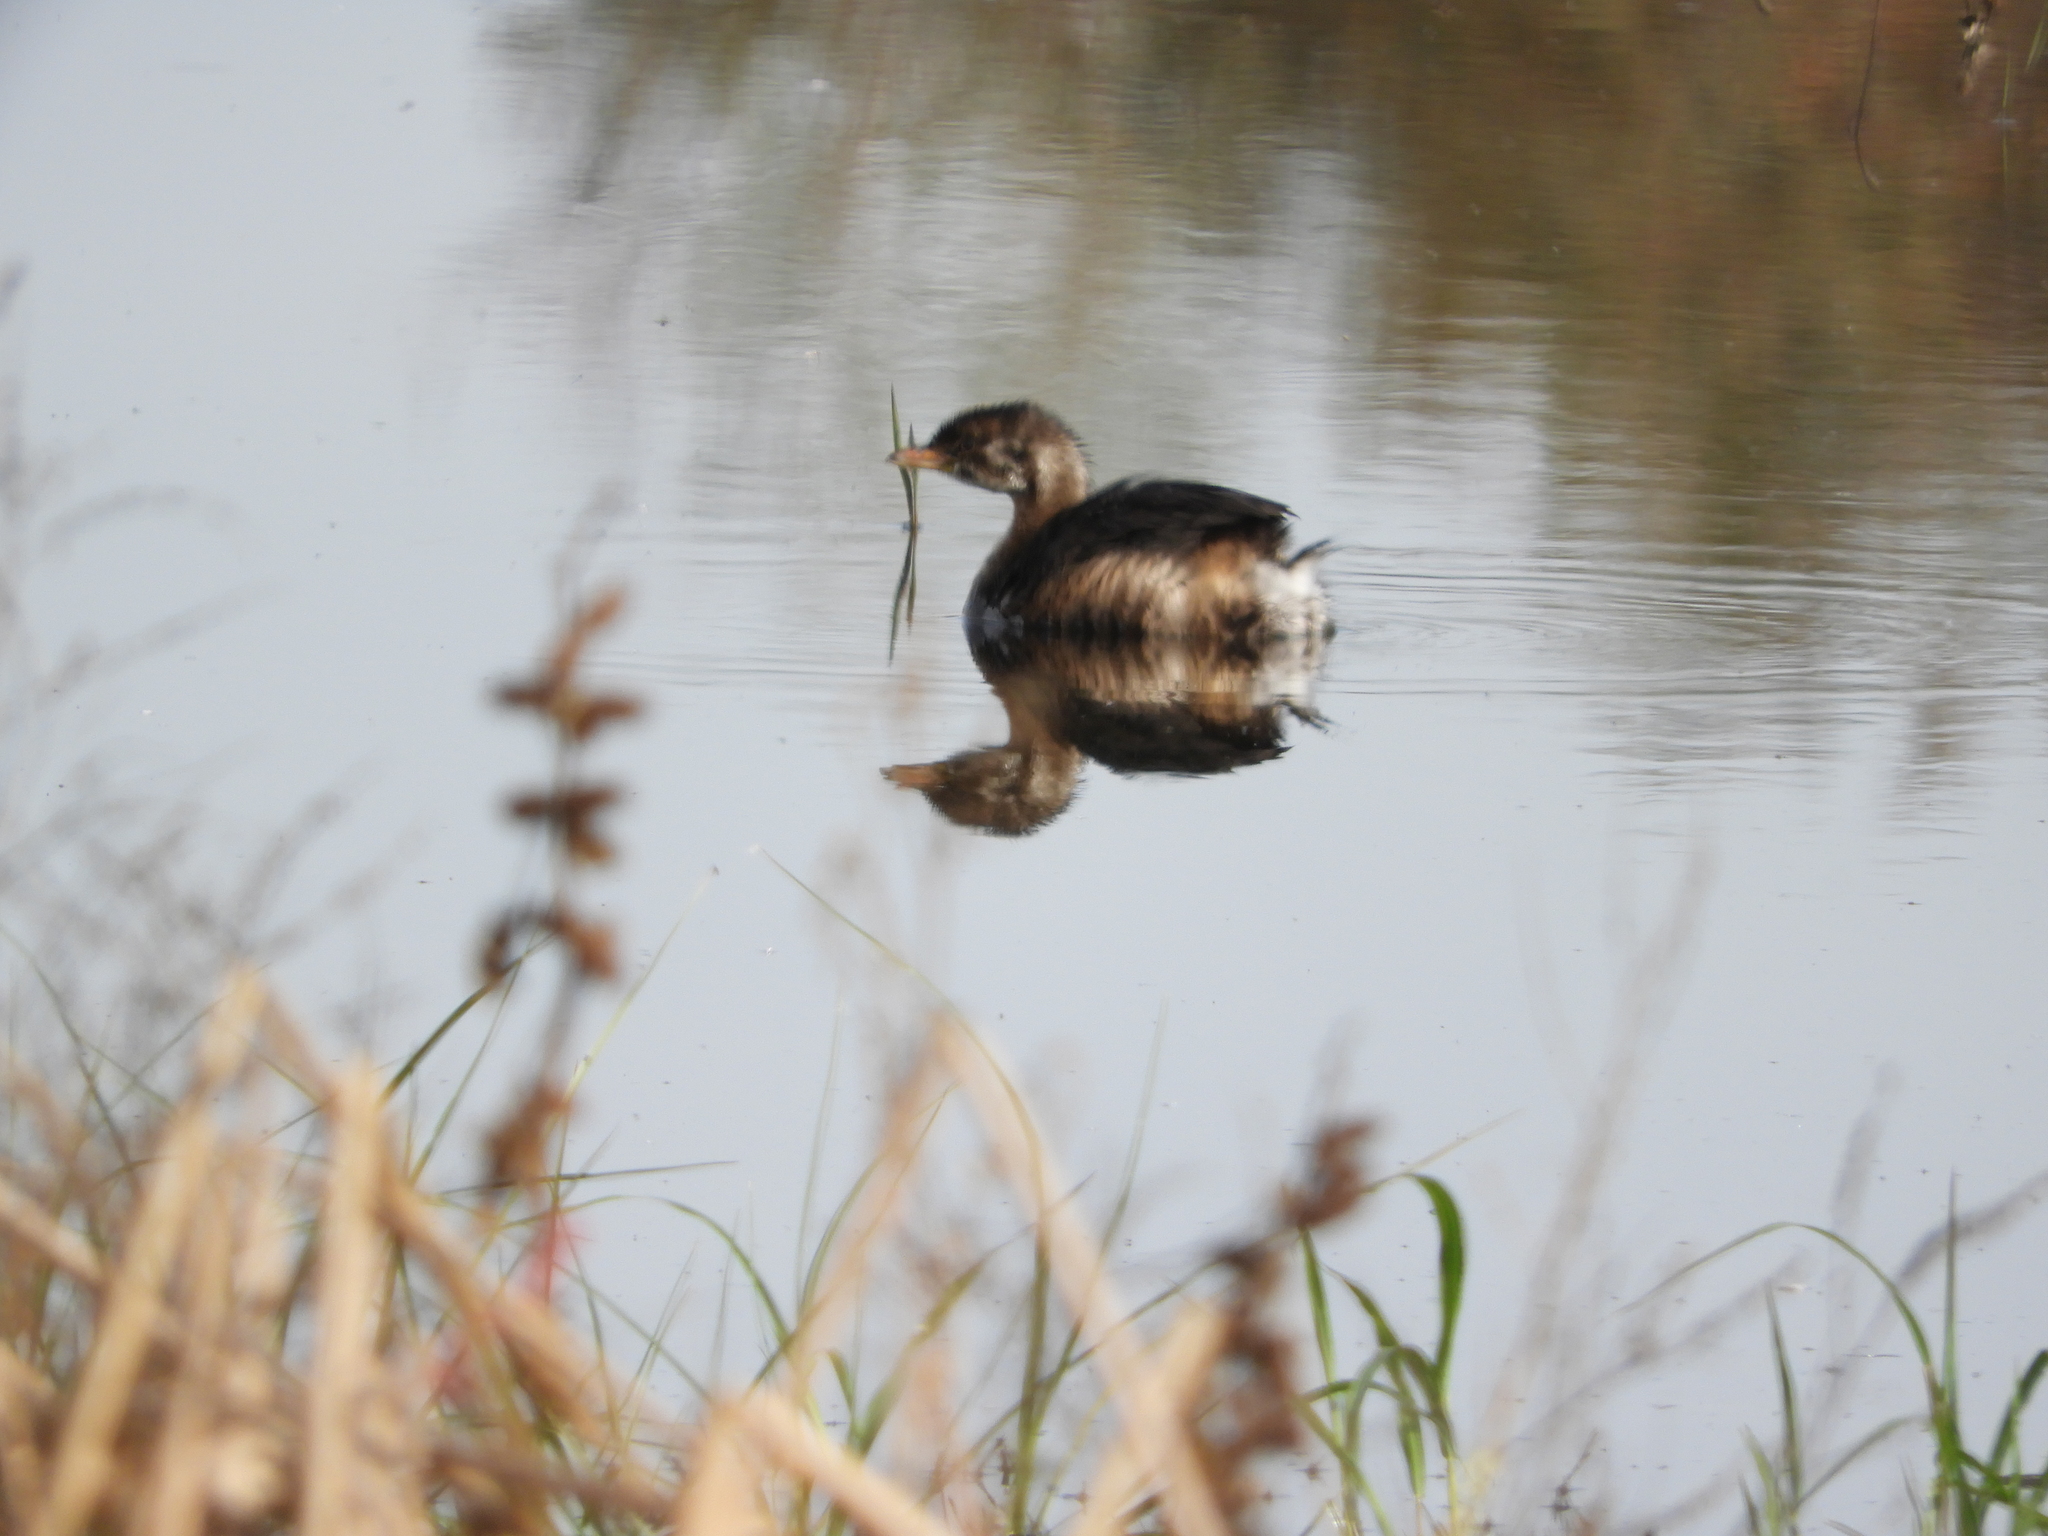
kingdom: Animalia
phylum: Chordata
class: Aves
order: Podicipediformes
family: Podicipedidae
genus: Podilymbus
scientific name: Podilymbus podiceps
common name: Pied-billed grebe
